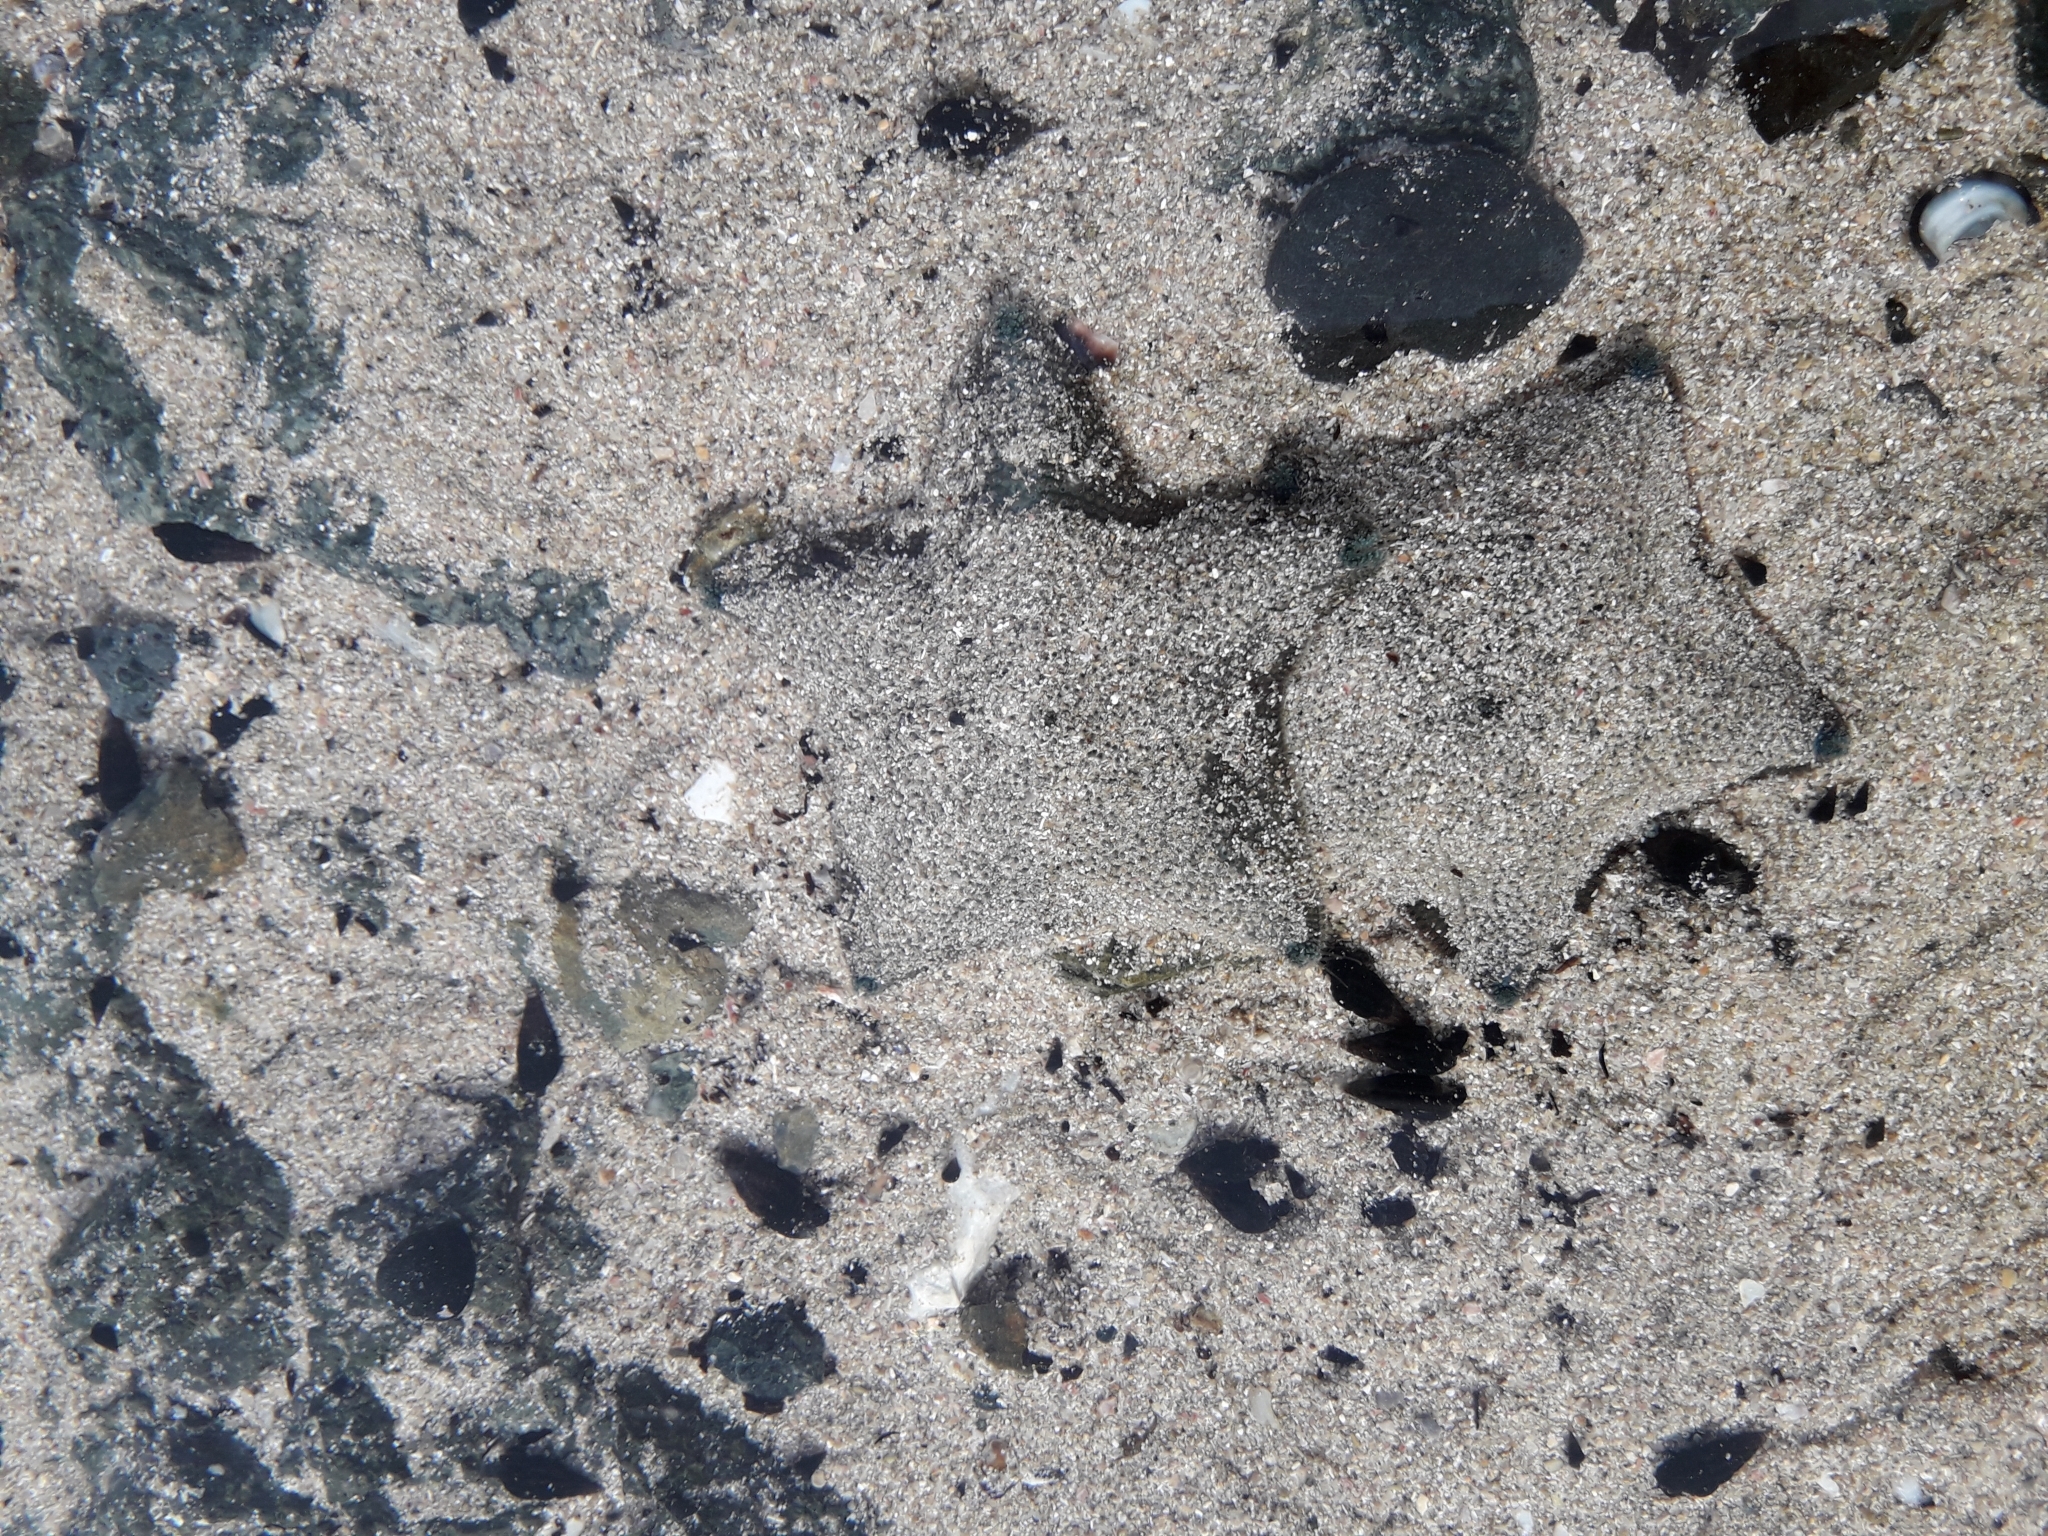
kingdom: Animalia
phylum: Echinodermata
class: Asteroidea
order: Valvatida
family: Asterinidae
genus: Patiriella
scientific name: Patiriella regularis
